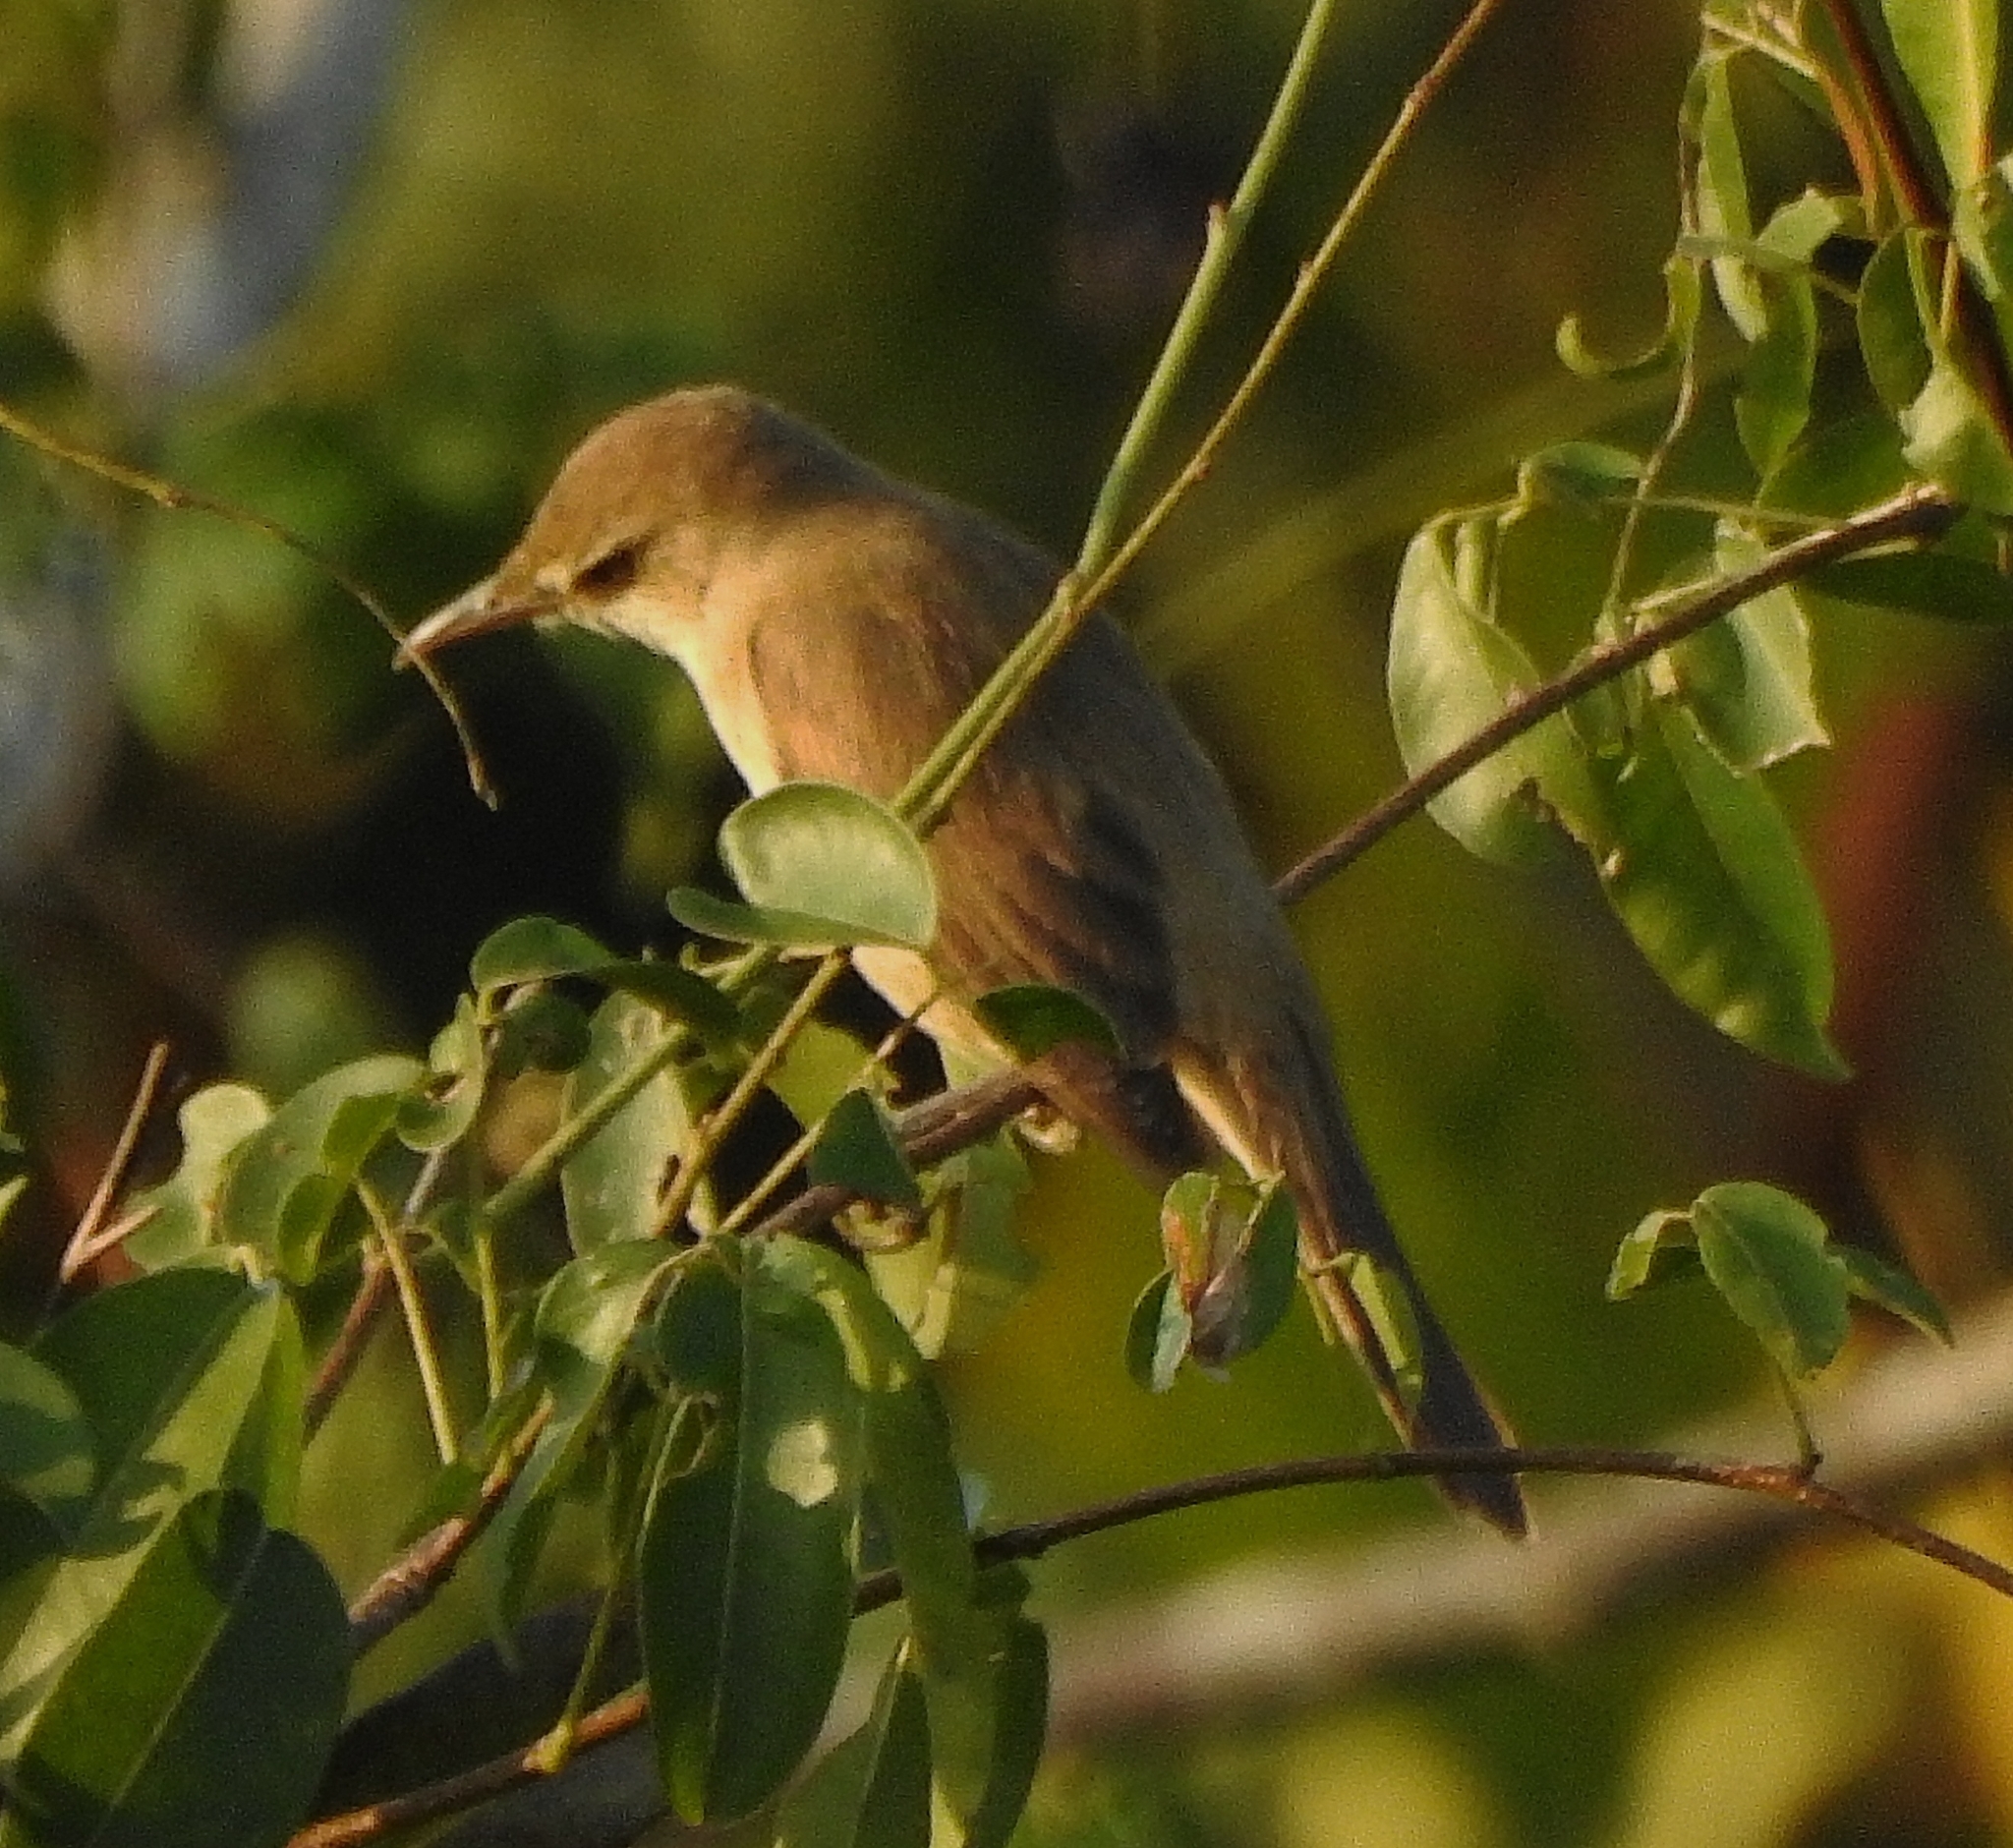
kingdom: Animalia
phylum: Chordata
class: Aves
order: Passeriformes
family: Acrocephalidae
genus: Acrocephalus
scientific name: Acrocephalus stentoreus
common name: Clamorous reed warbler
